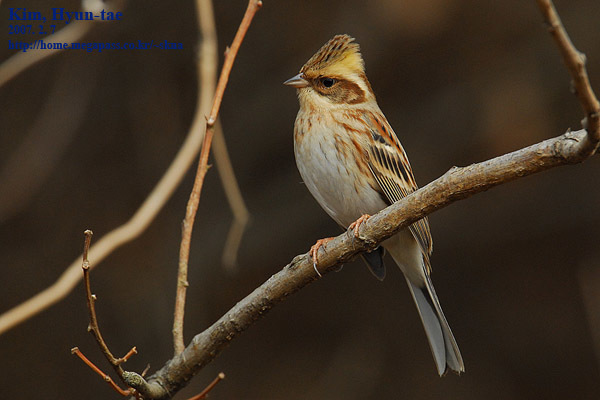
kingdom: Animalia
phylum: Chordata
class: Aves
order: Passeriformes
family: Emberizidae
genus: Emberiza
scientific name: Emberiza elegans
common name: Yellow-throated bunting
